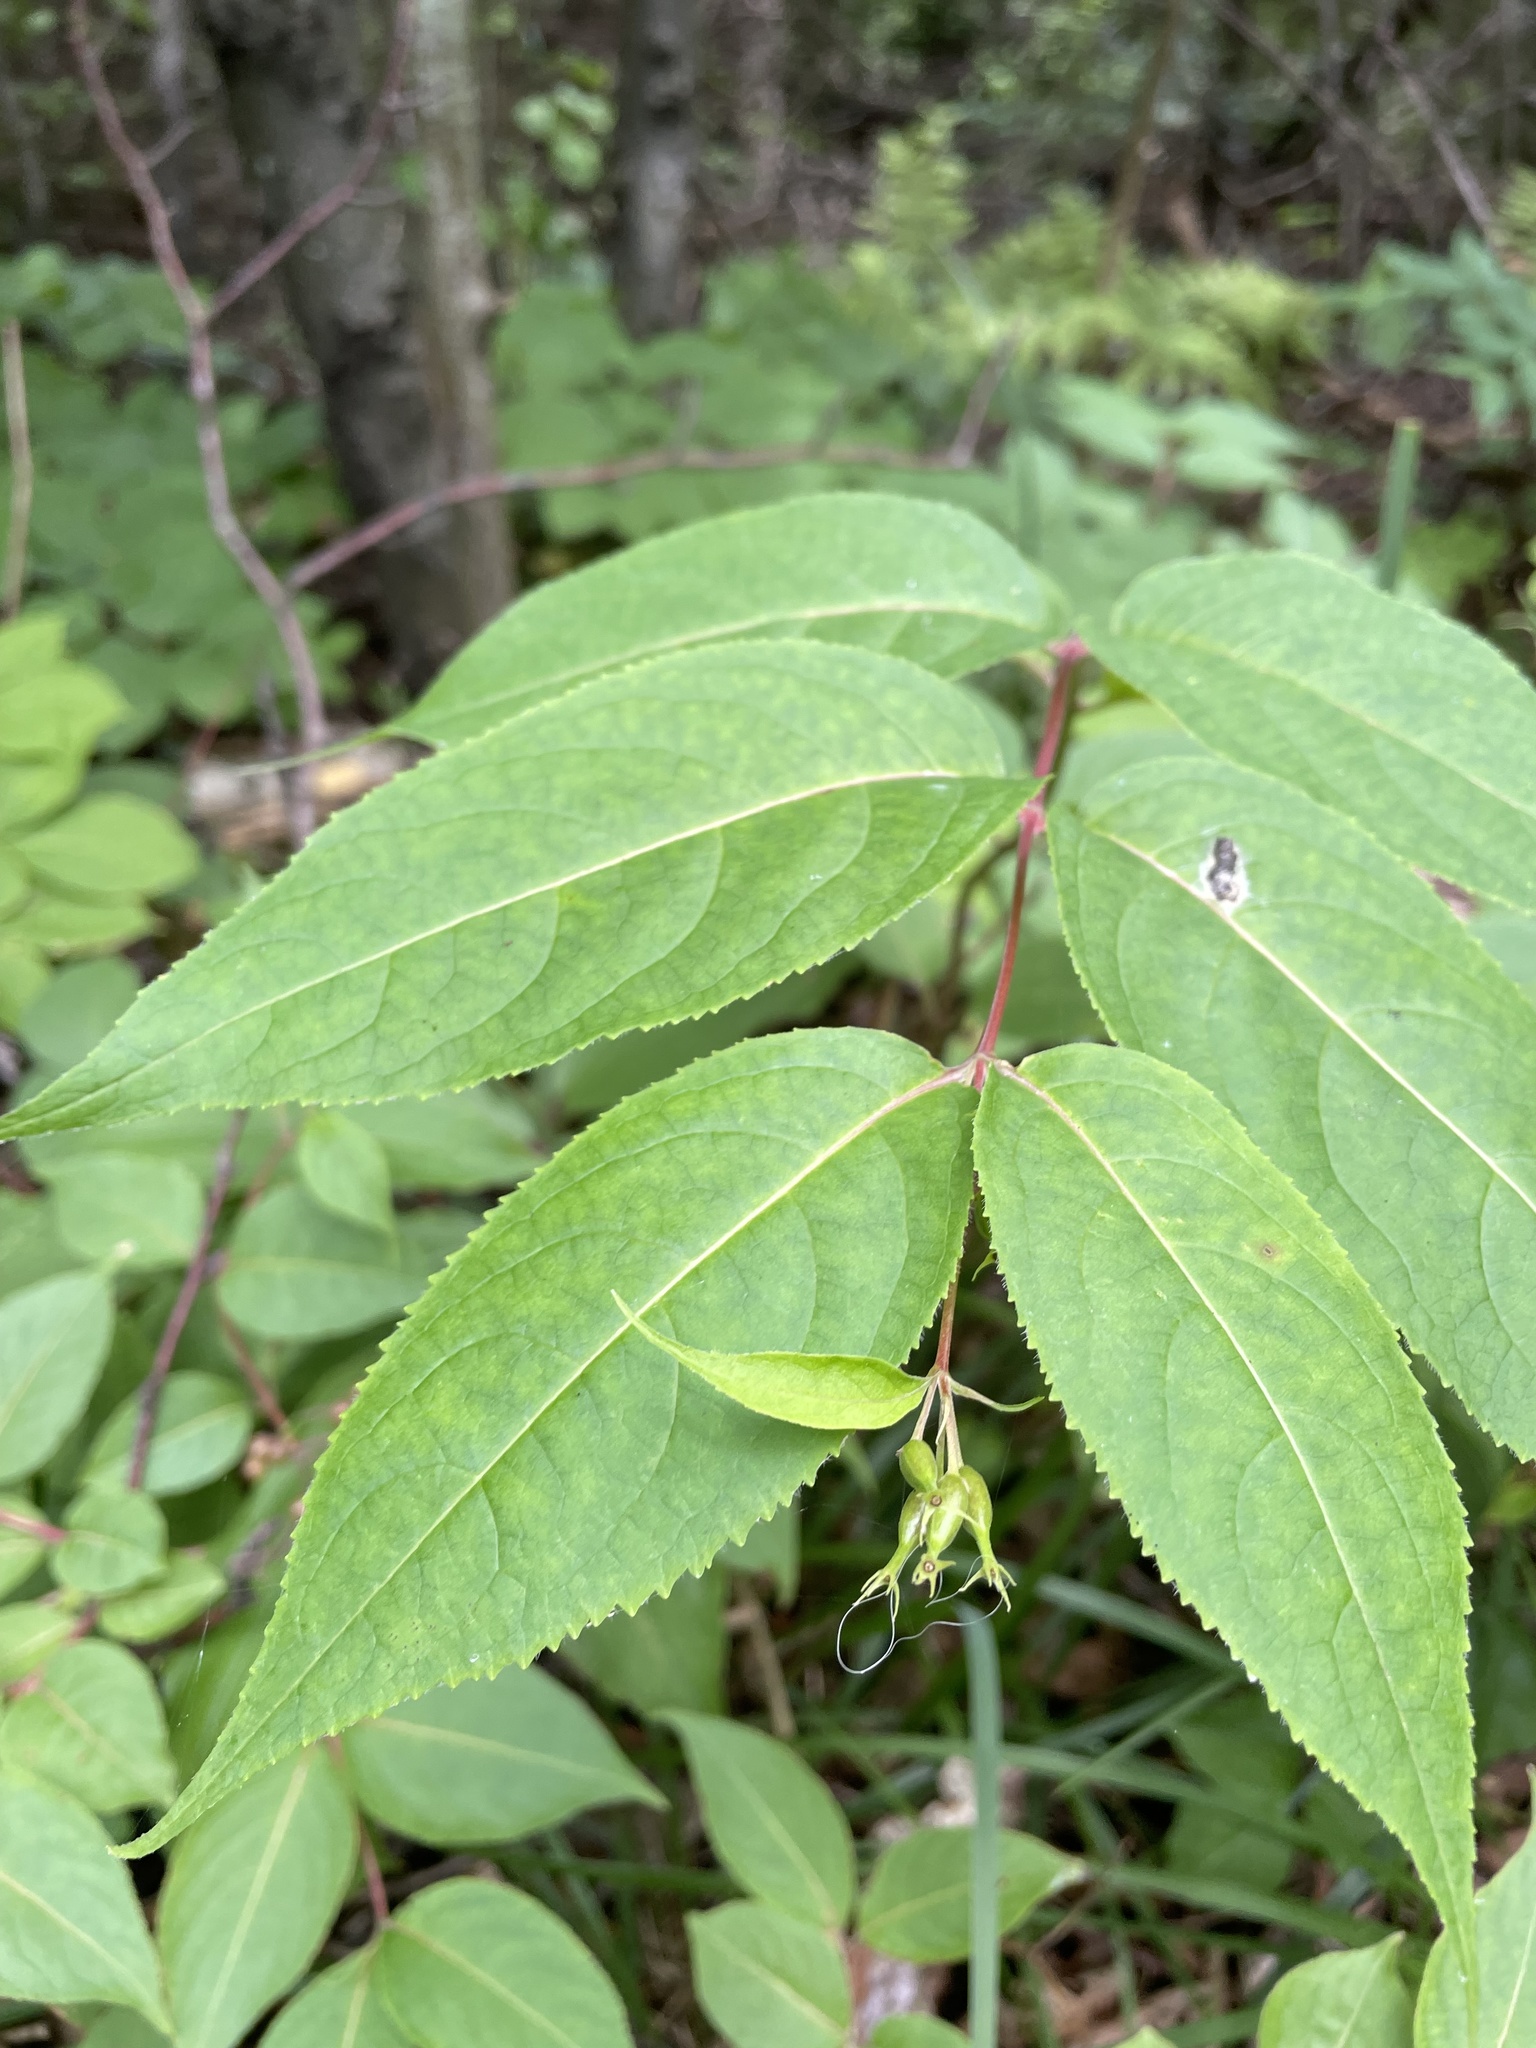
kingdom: Plantae
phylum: Tracheophyta
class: Magnoliopsida
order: Dipsacales
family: Caprifoliaceae
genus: Diervilla
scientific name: Diervilla lonicera
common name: Bush-honeysuckle
